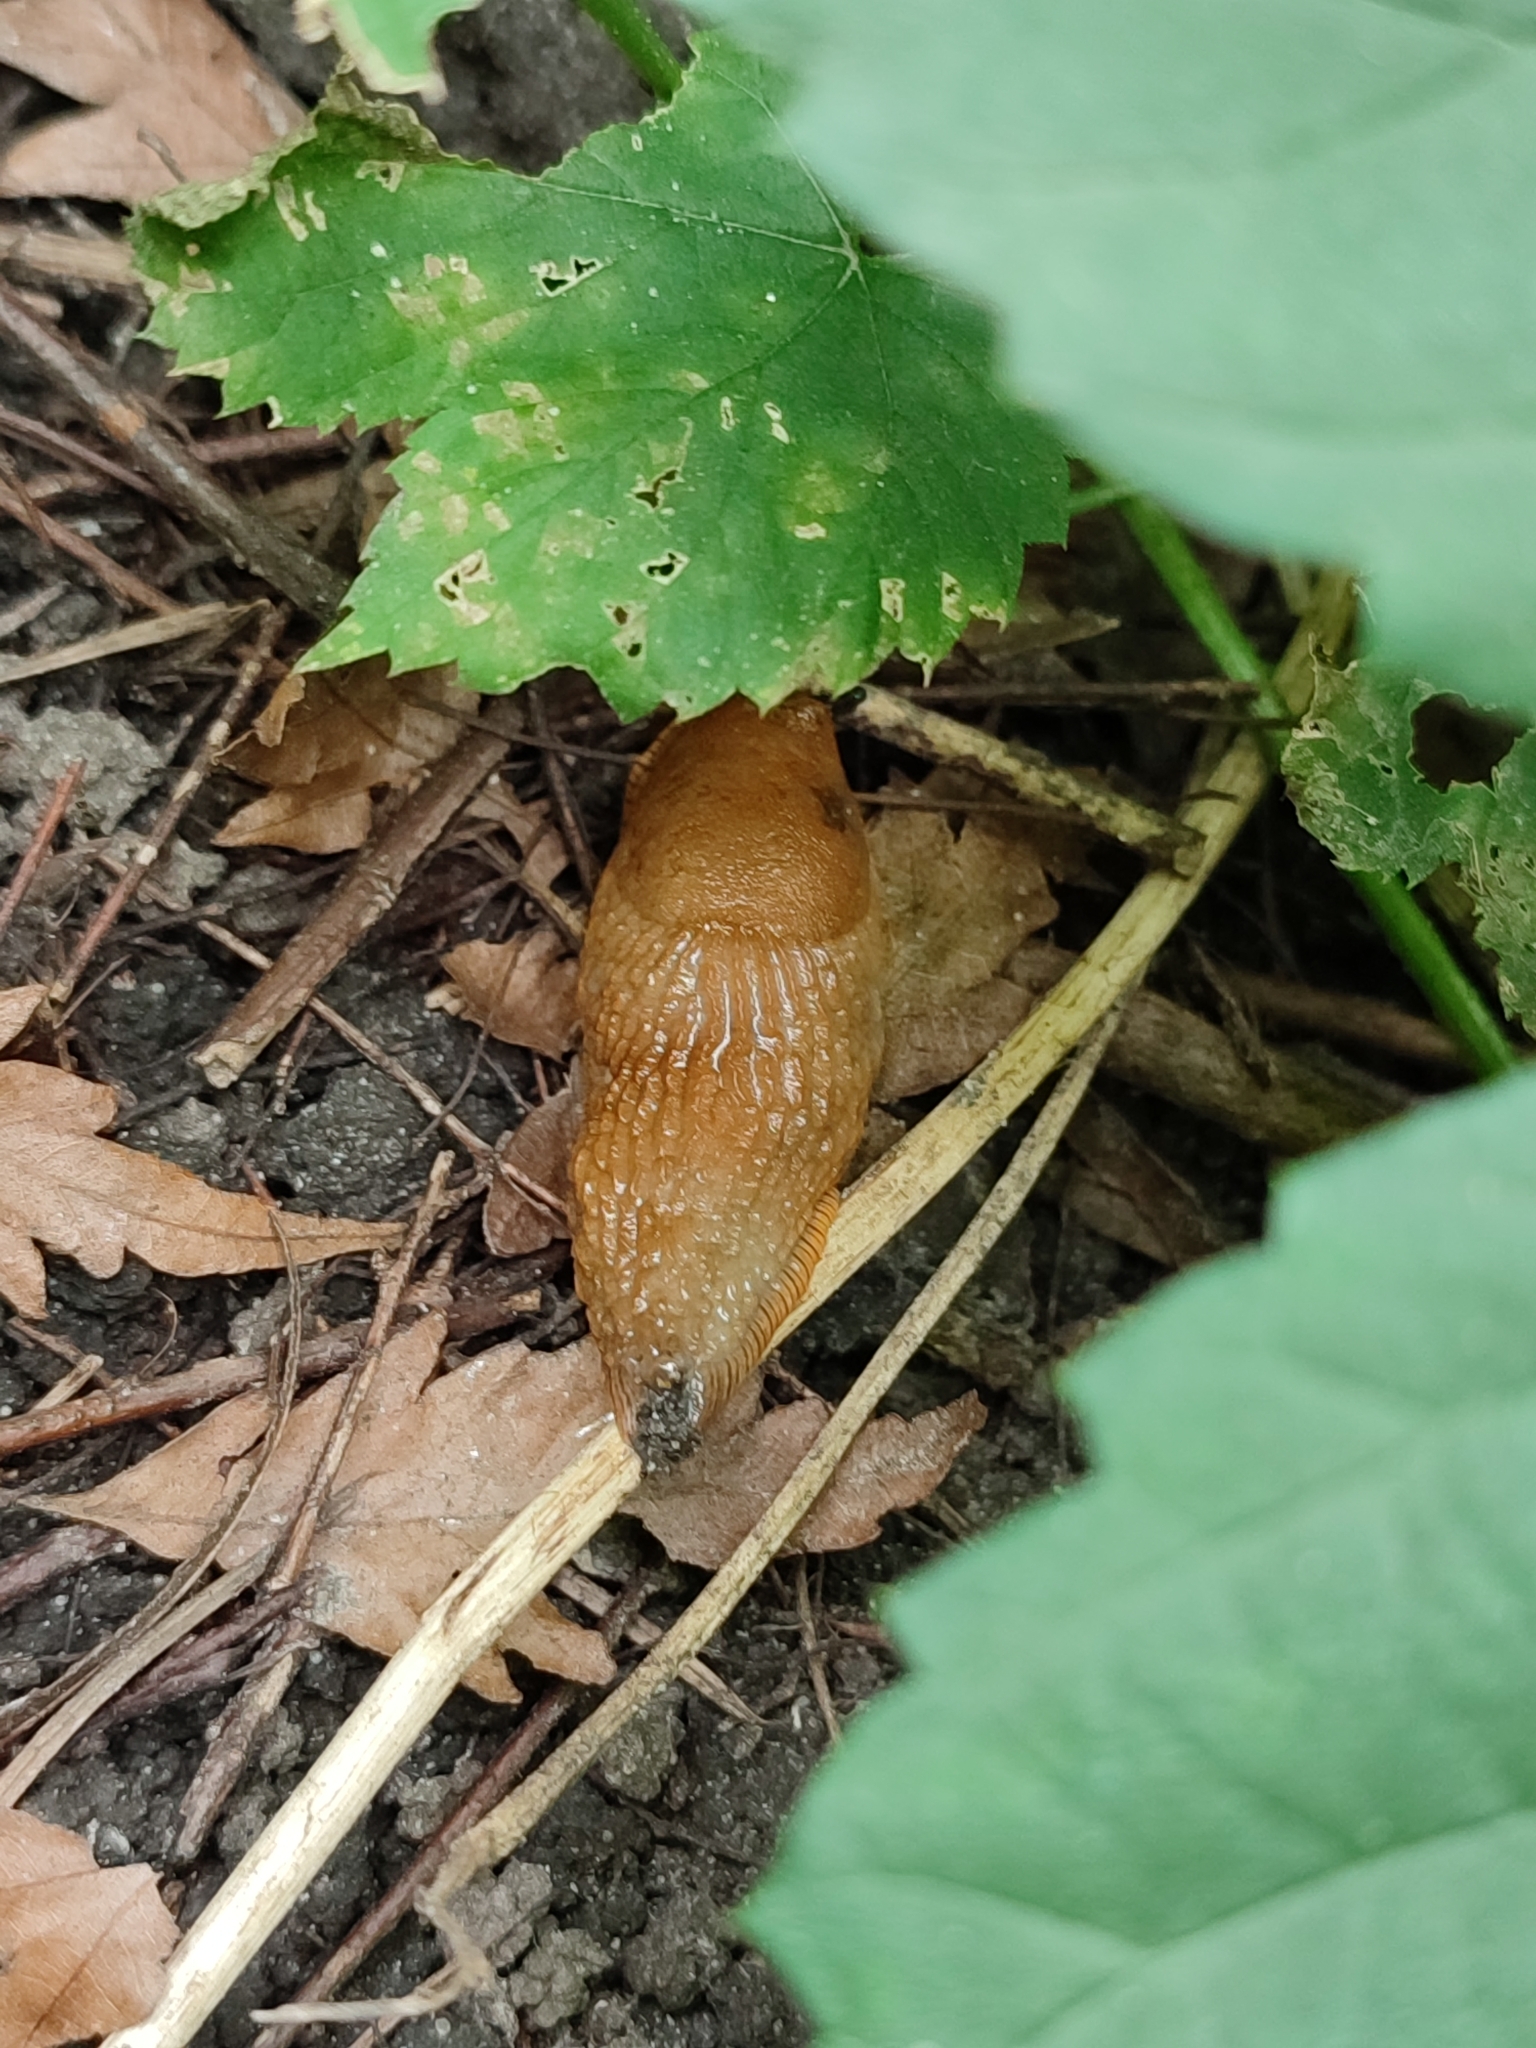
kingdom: Animalia
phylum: Mollusca
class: Gastropoda
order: Stylommatophora
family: Arionidae
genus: Arion
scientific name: Arion vulgaris
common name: Lusitanian slug
